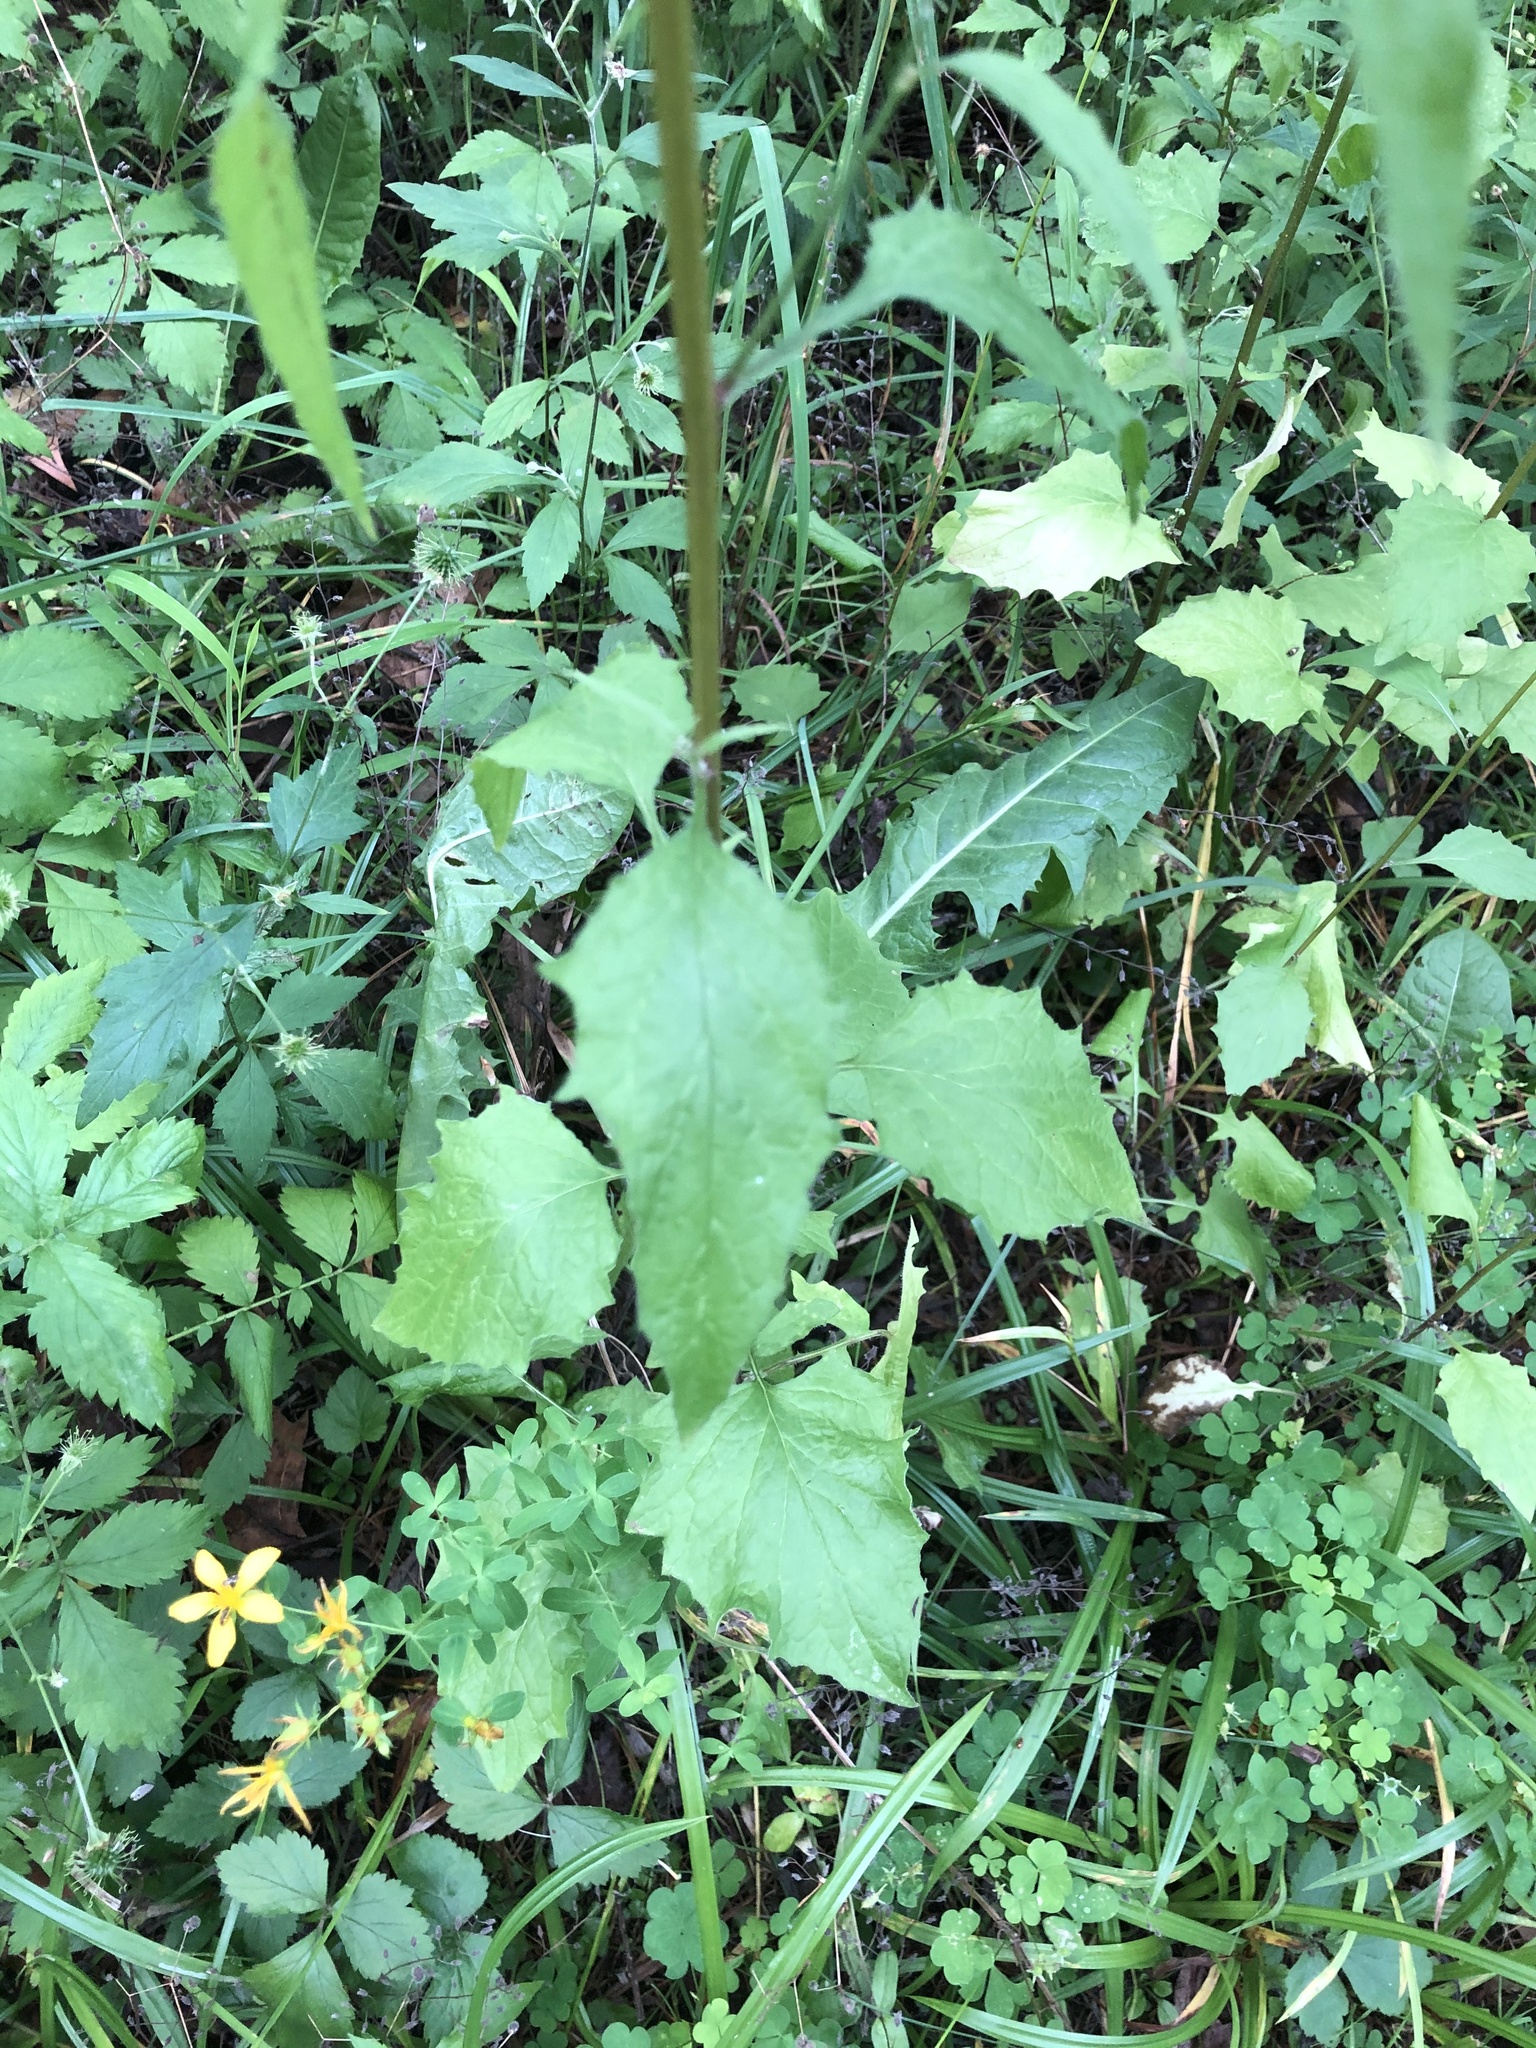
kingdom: Plantae
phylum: Tracheophyta
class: Magnoliopsida
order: Asterales
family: Asteraceae
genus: Lapsana
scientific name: Lapsana communis
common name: Nipplewort
